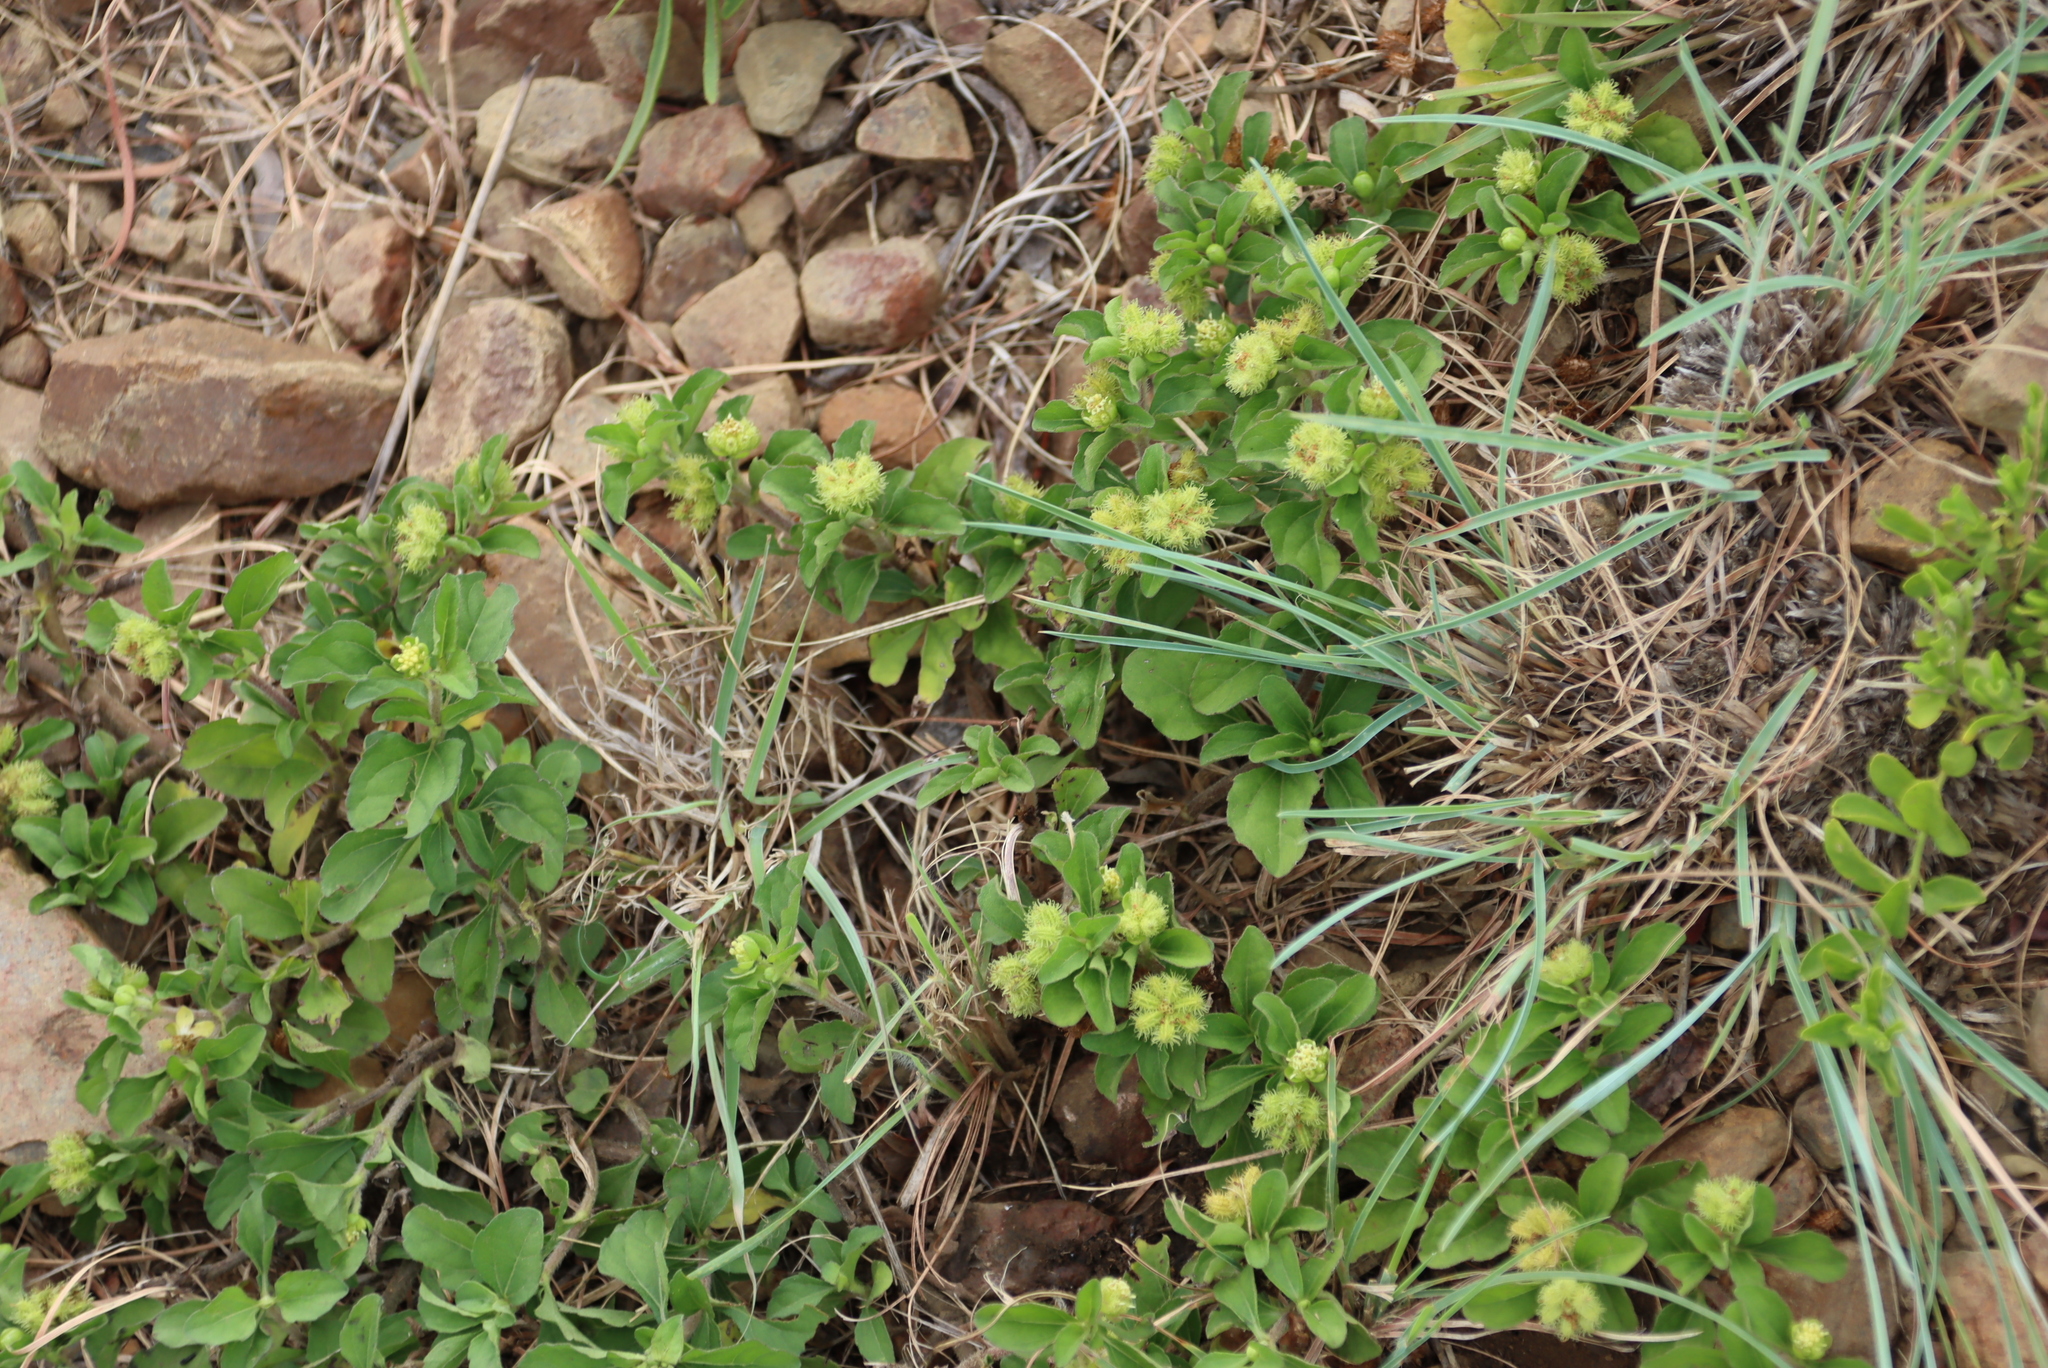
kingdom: Plantae
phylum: Tracheophyta
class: Magnoliopsida
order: Asterales
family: Asteraceae
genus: Acanthospermum
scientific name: Acanthospermum australe
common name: Paraguayan starbur
